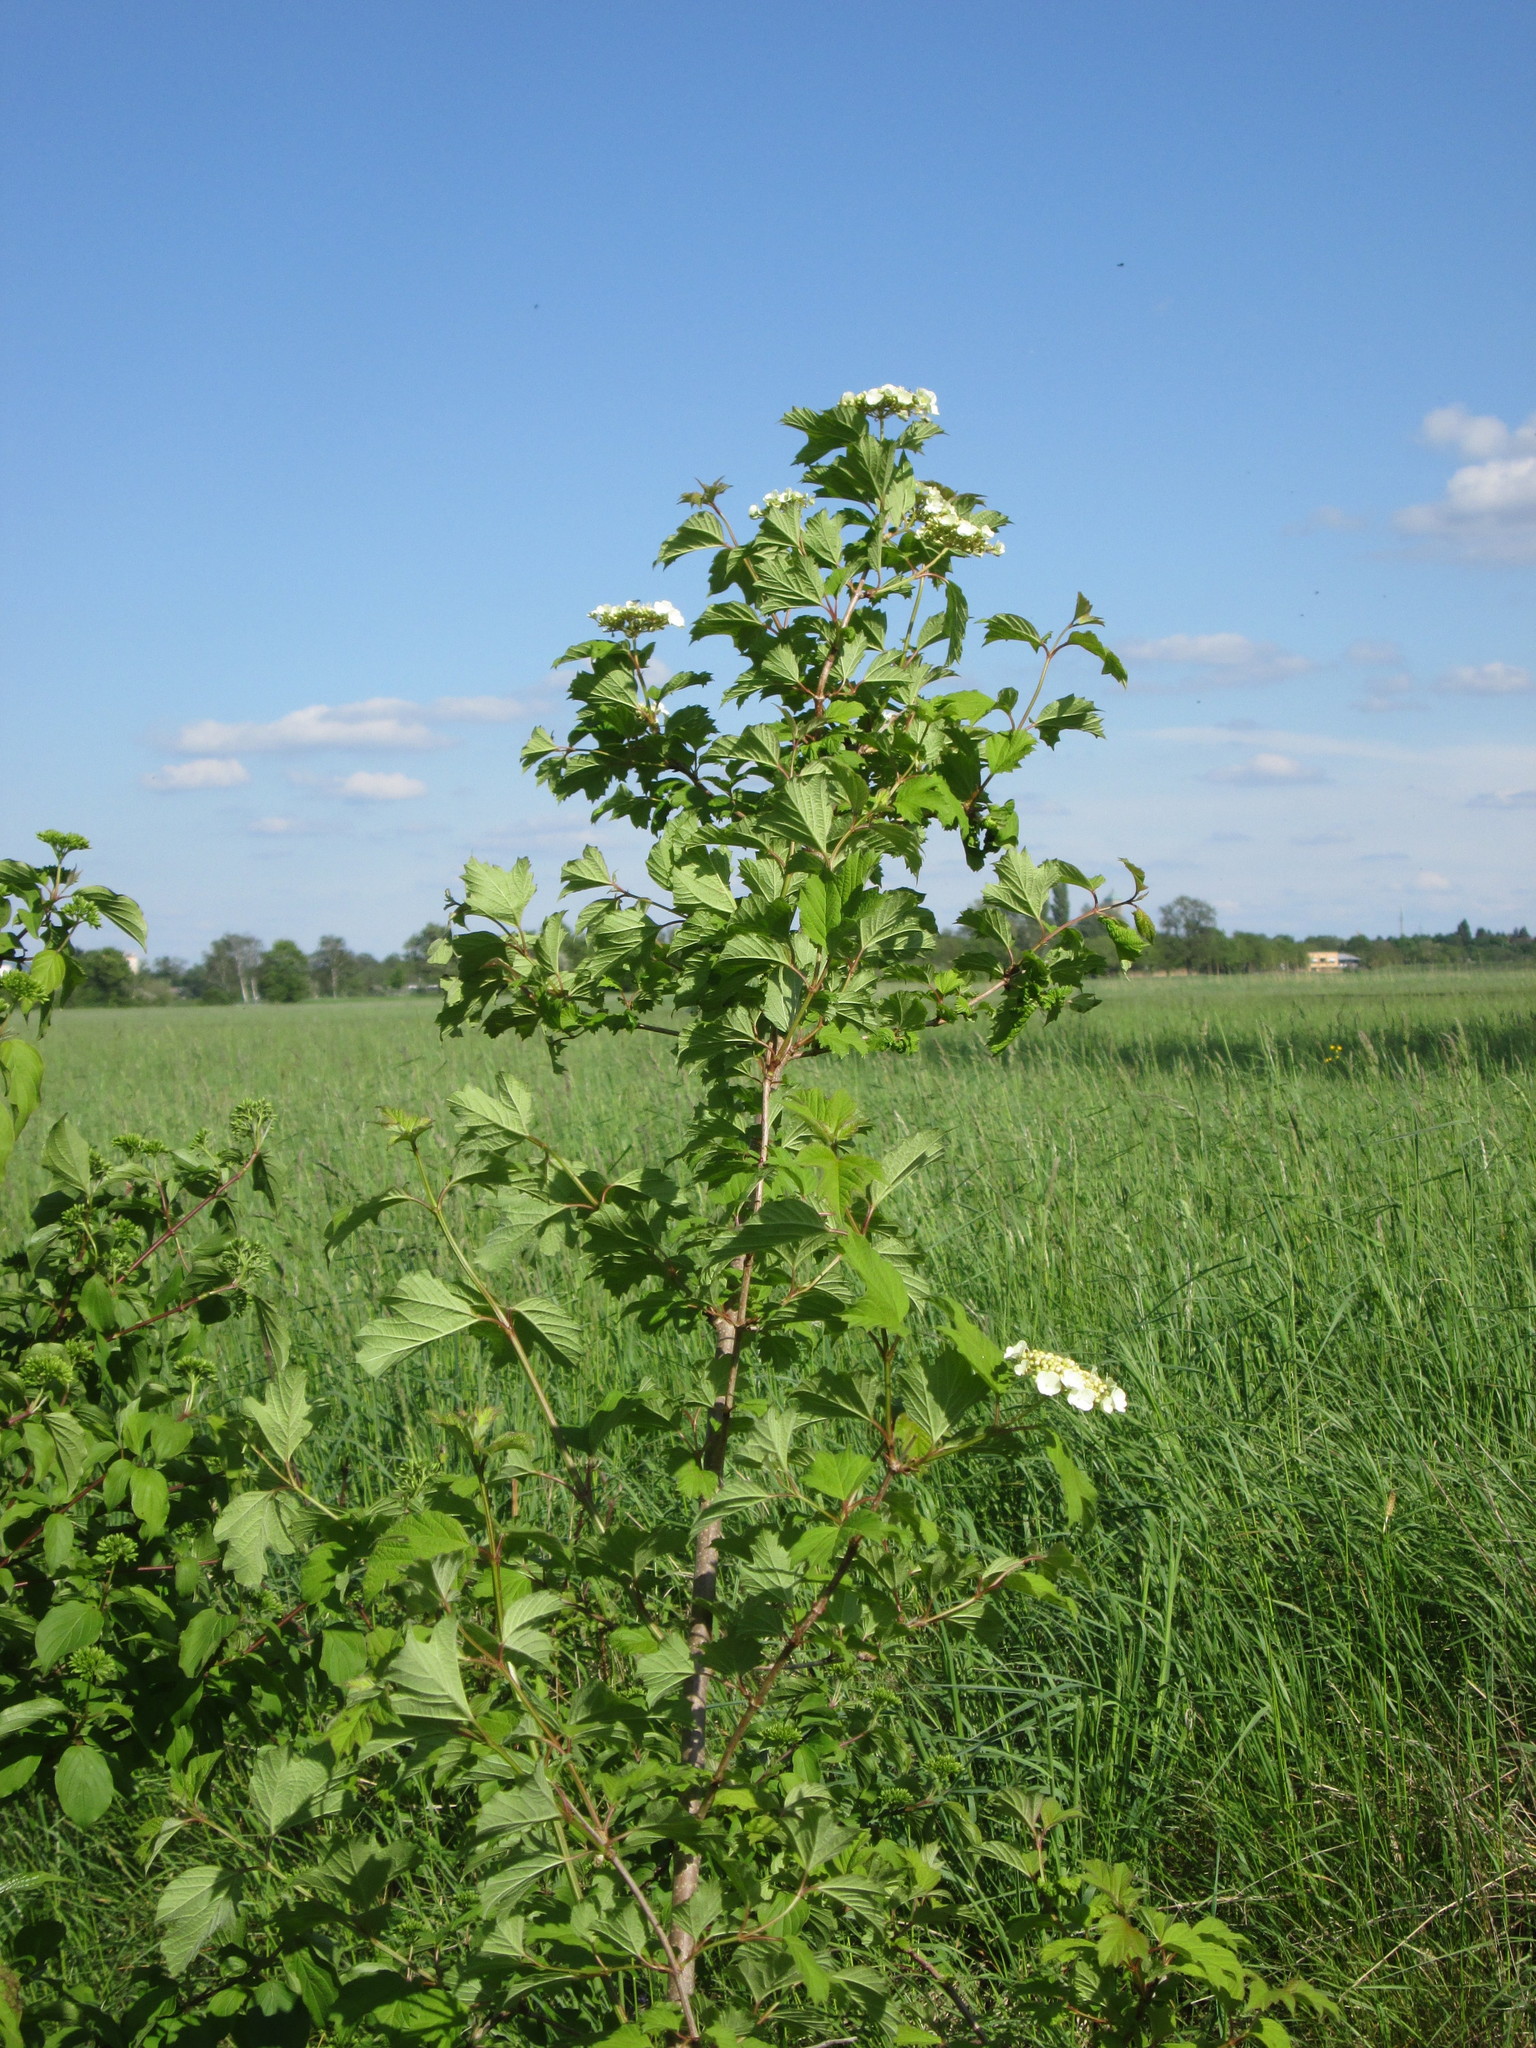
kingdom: Plantae
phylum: Tracheophyta
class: Magnoliopsida
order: Dipsacales
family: Viburnaceae
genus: Viburnum
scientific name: Viburnum opulus
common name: Guelder-rose
